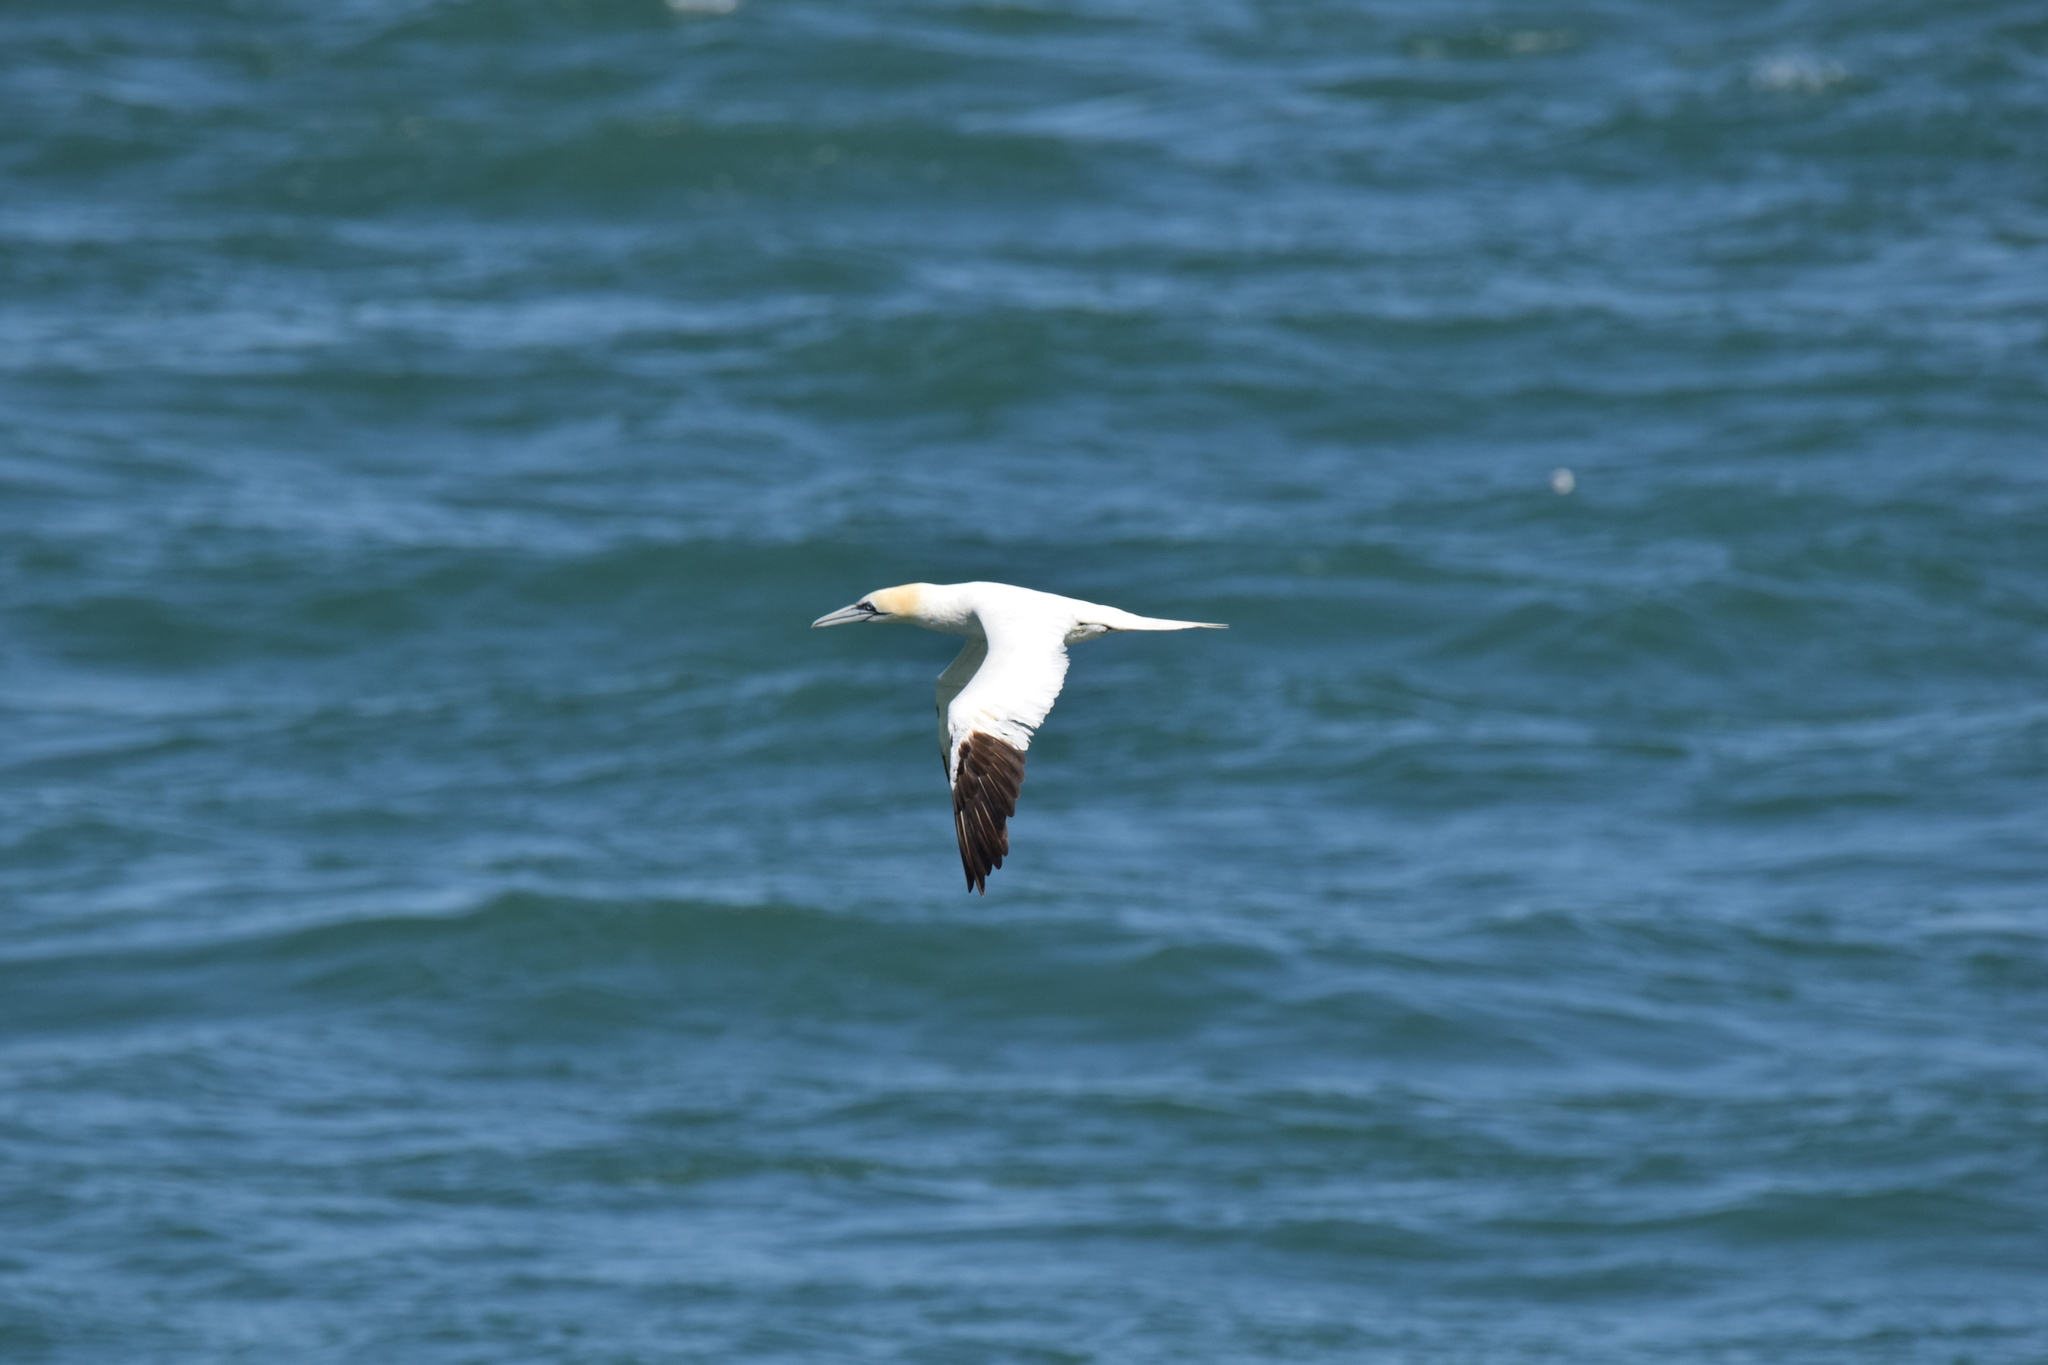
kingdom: Animalia
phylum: Chordata
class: Aves
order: Suliformes
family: Sulidae
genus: Morus
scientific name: Morus bassanus
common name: Northern gannet
